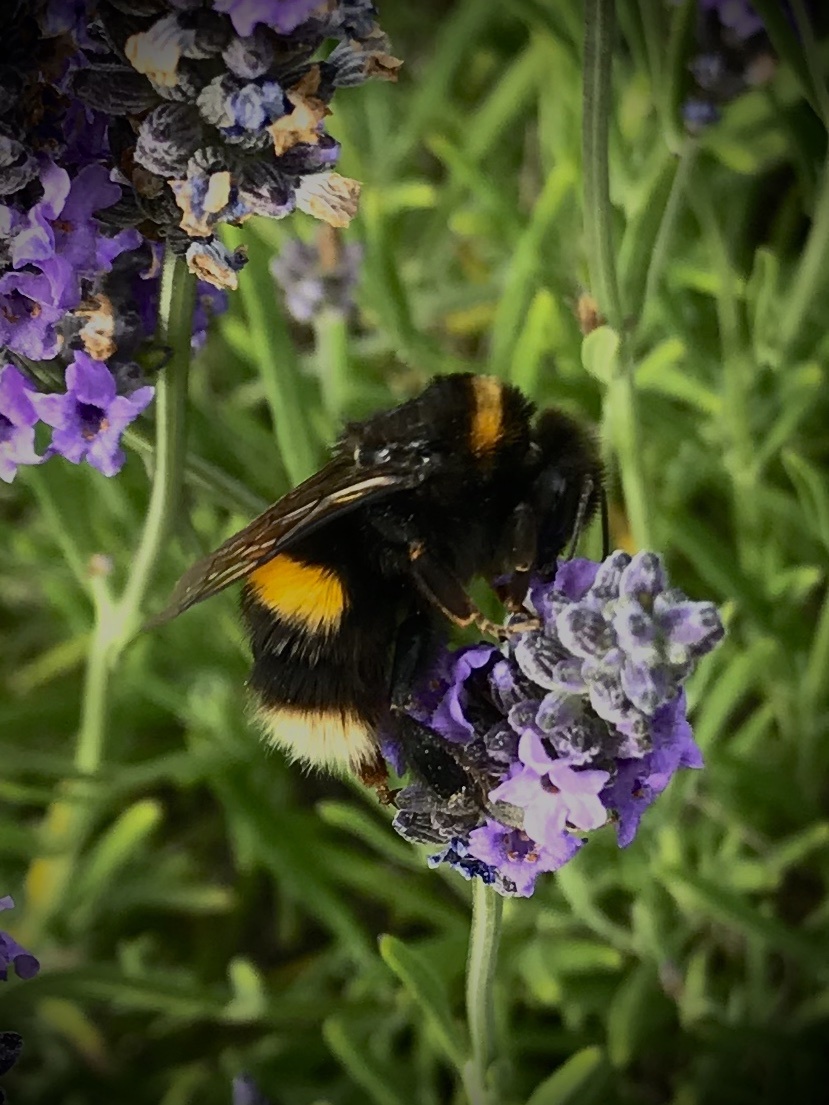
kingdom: Animalia
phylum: Arthropoda
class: Insecta
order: Hymenoptera
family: Apidae
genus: Bombus
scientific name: Bombus terrestris
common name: Buff-tailed bumblebee
